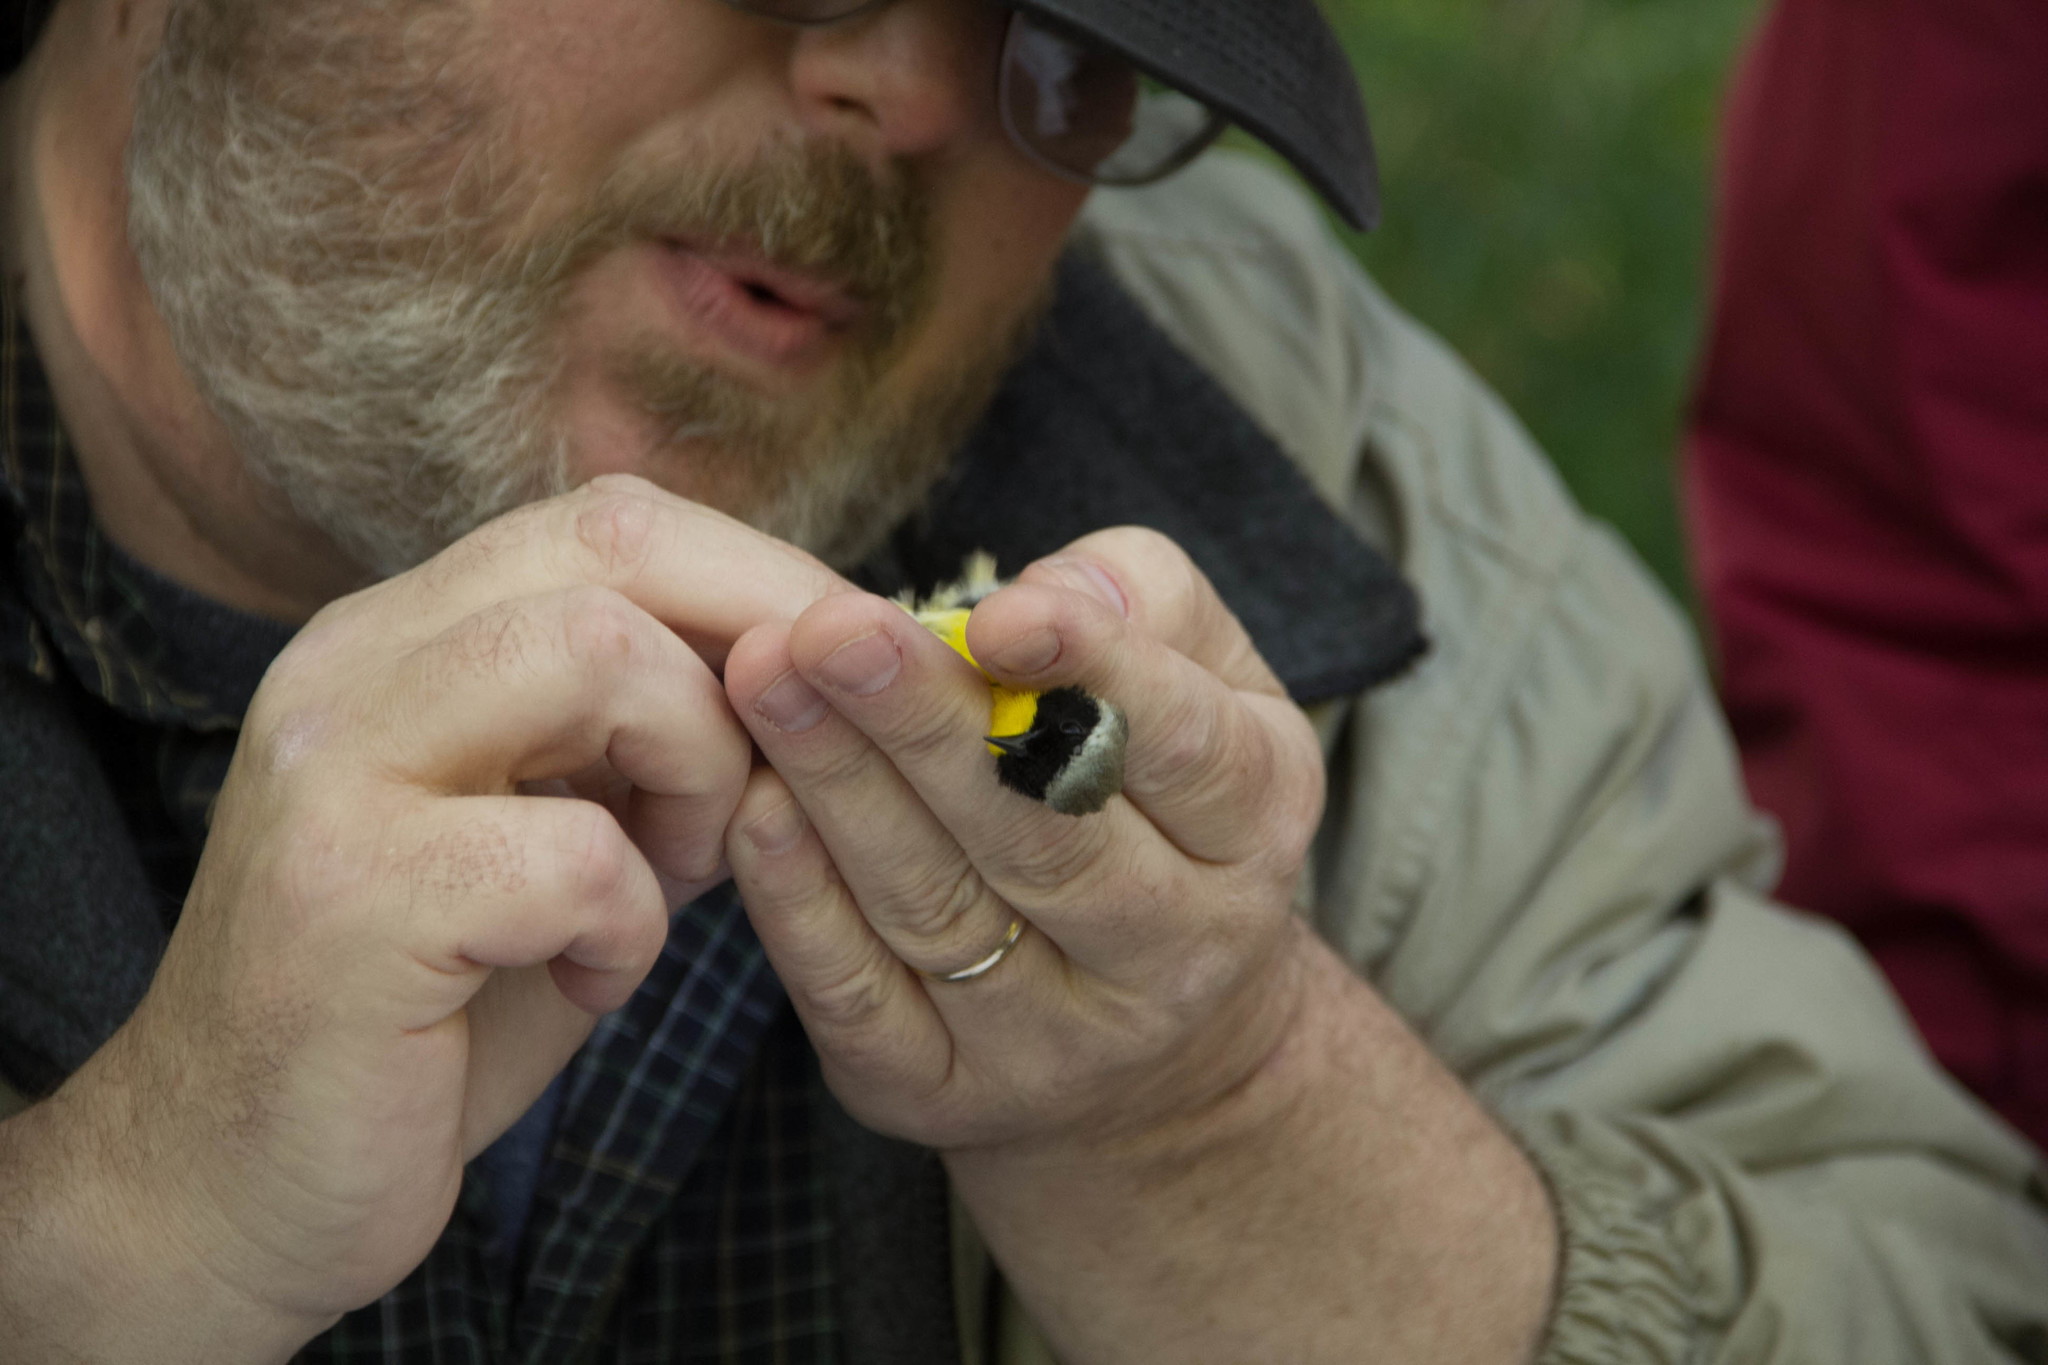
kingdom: Animalia
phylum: Chordata
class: Aves
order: Passeriformes
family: Parulidae
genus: Geothlypis
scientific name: Geothlypis trichas
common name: Common yellowthroat
